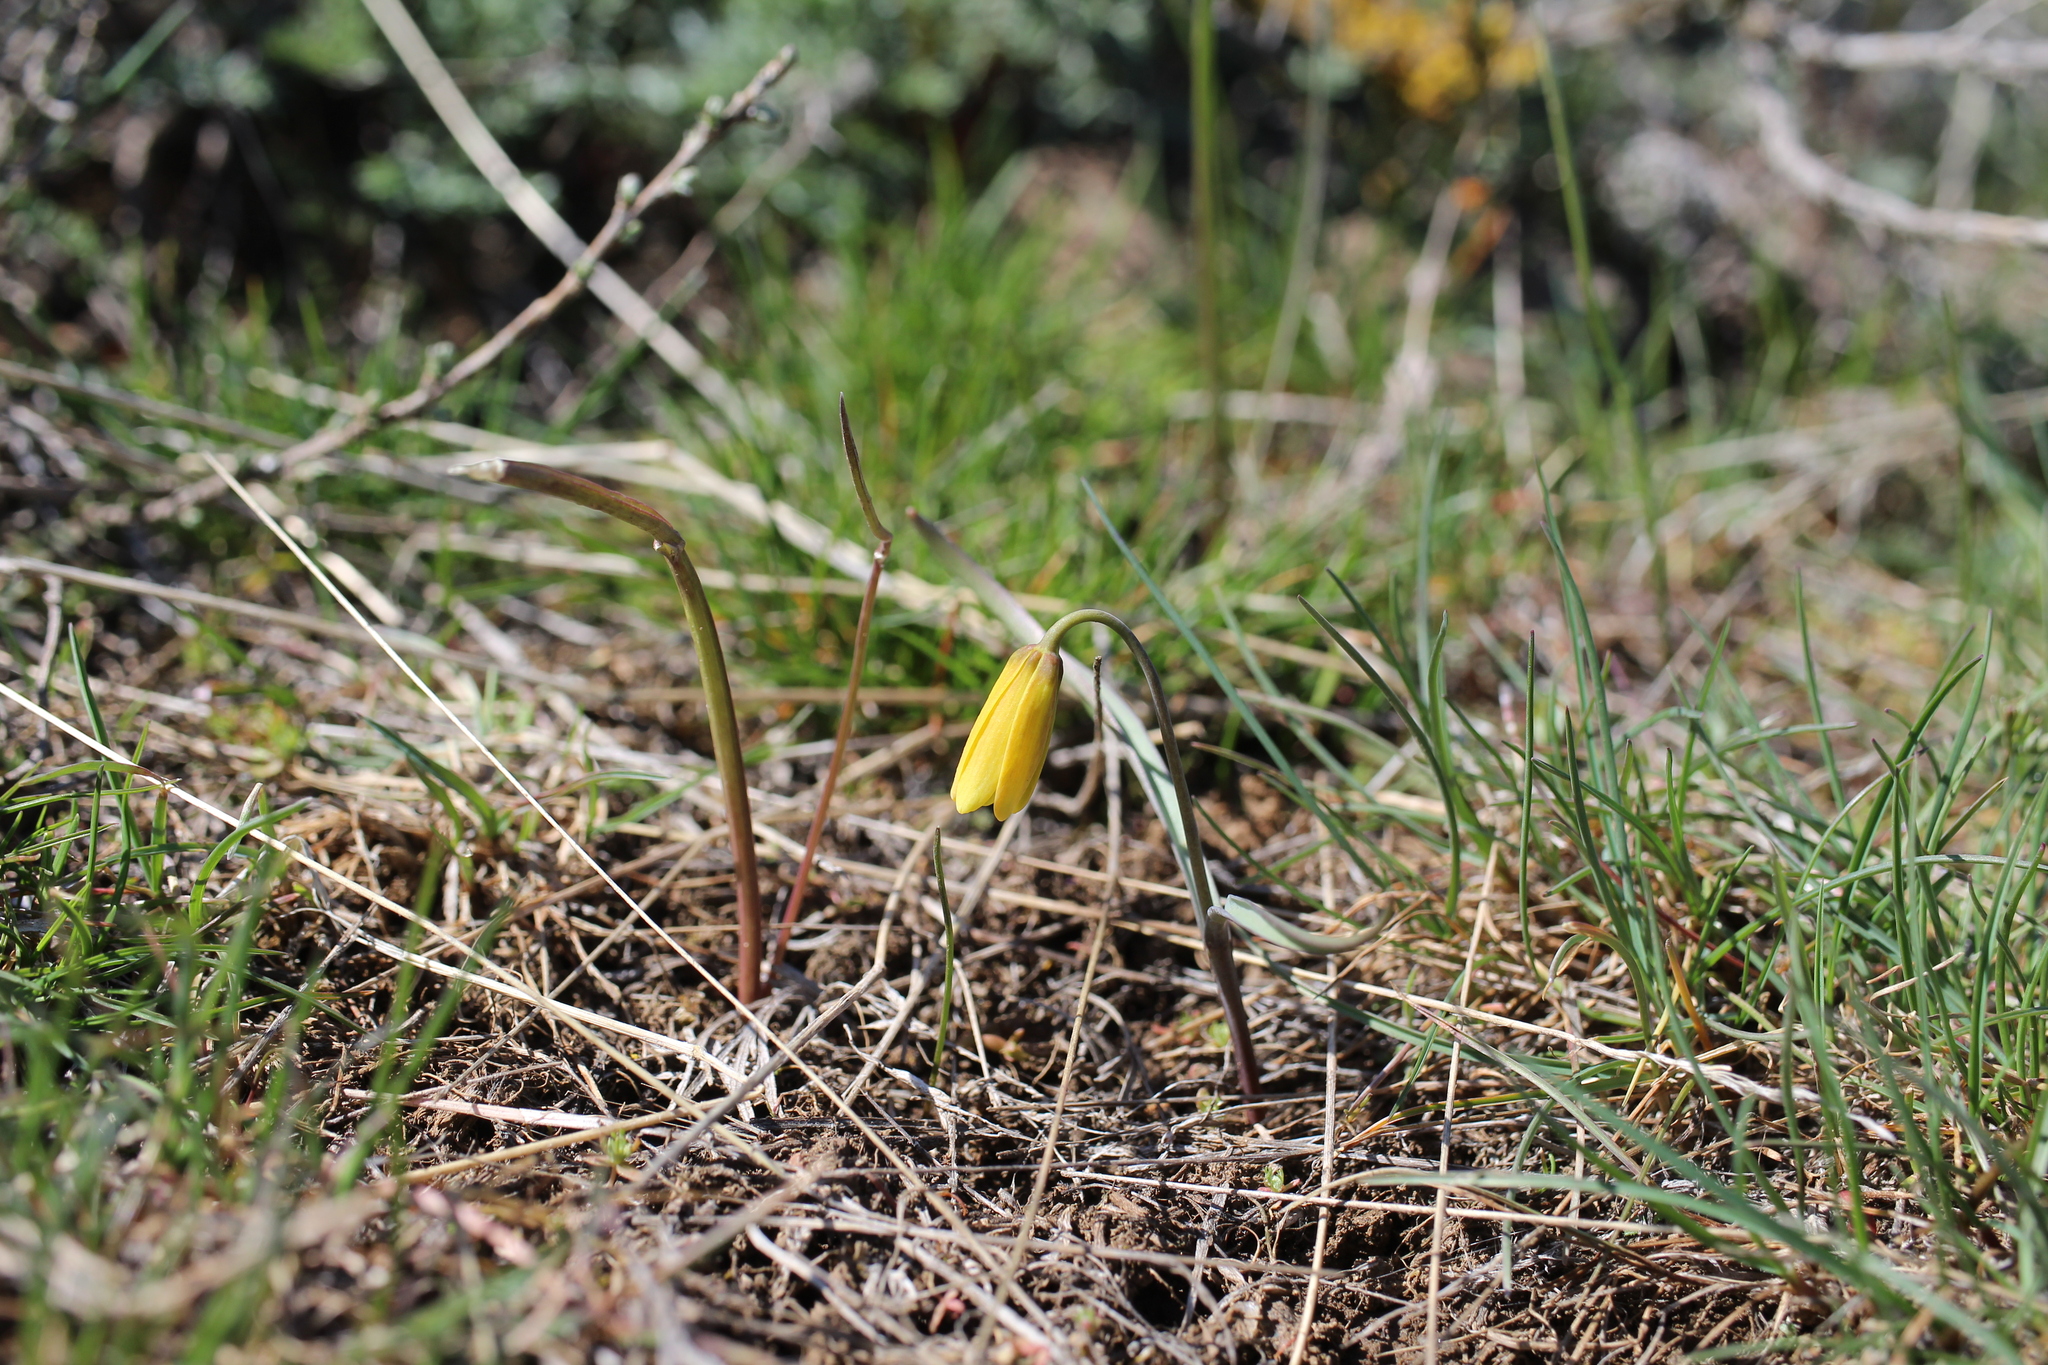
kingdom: Plantae
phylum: Tracheophyta
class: Liliopsida
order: Liliales
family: Liliaceae
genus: Fritillaria
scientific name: Fritillaria pudica
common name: Yellow fritillary
